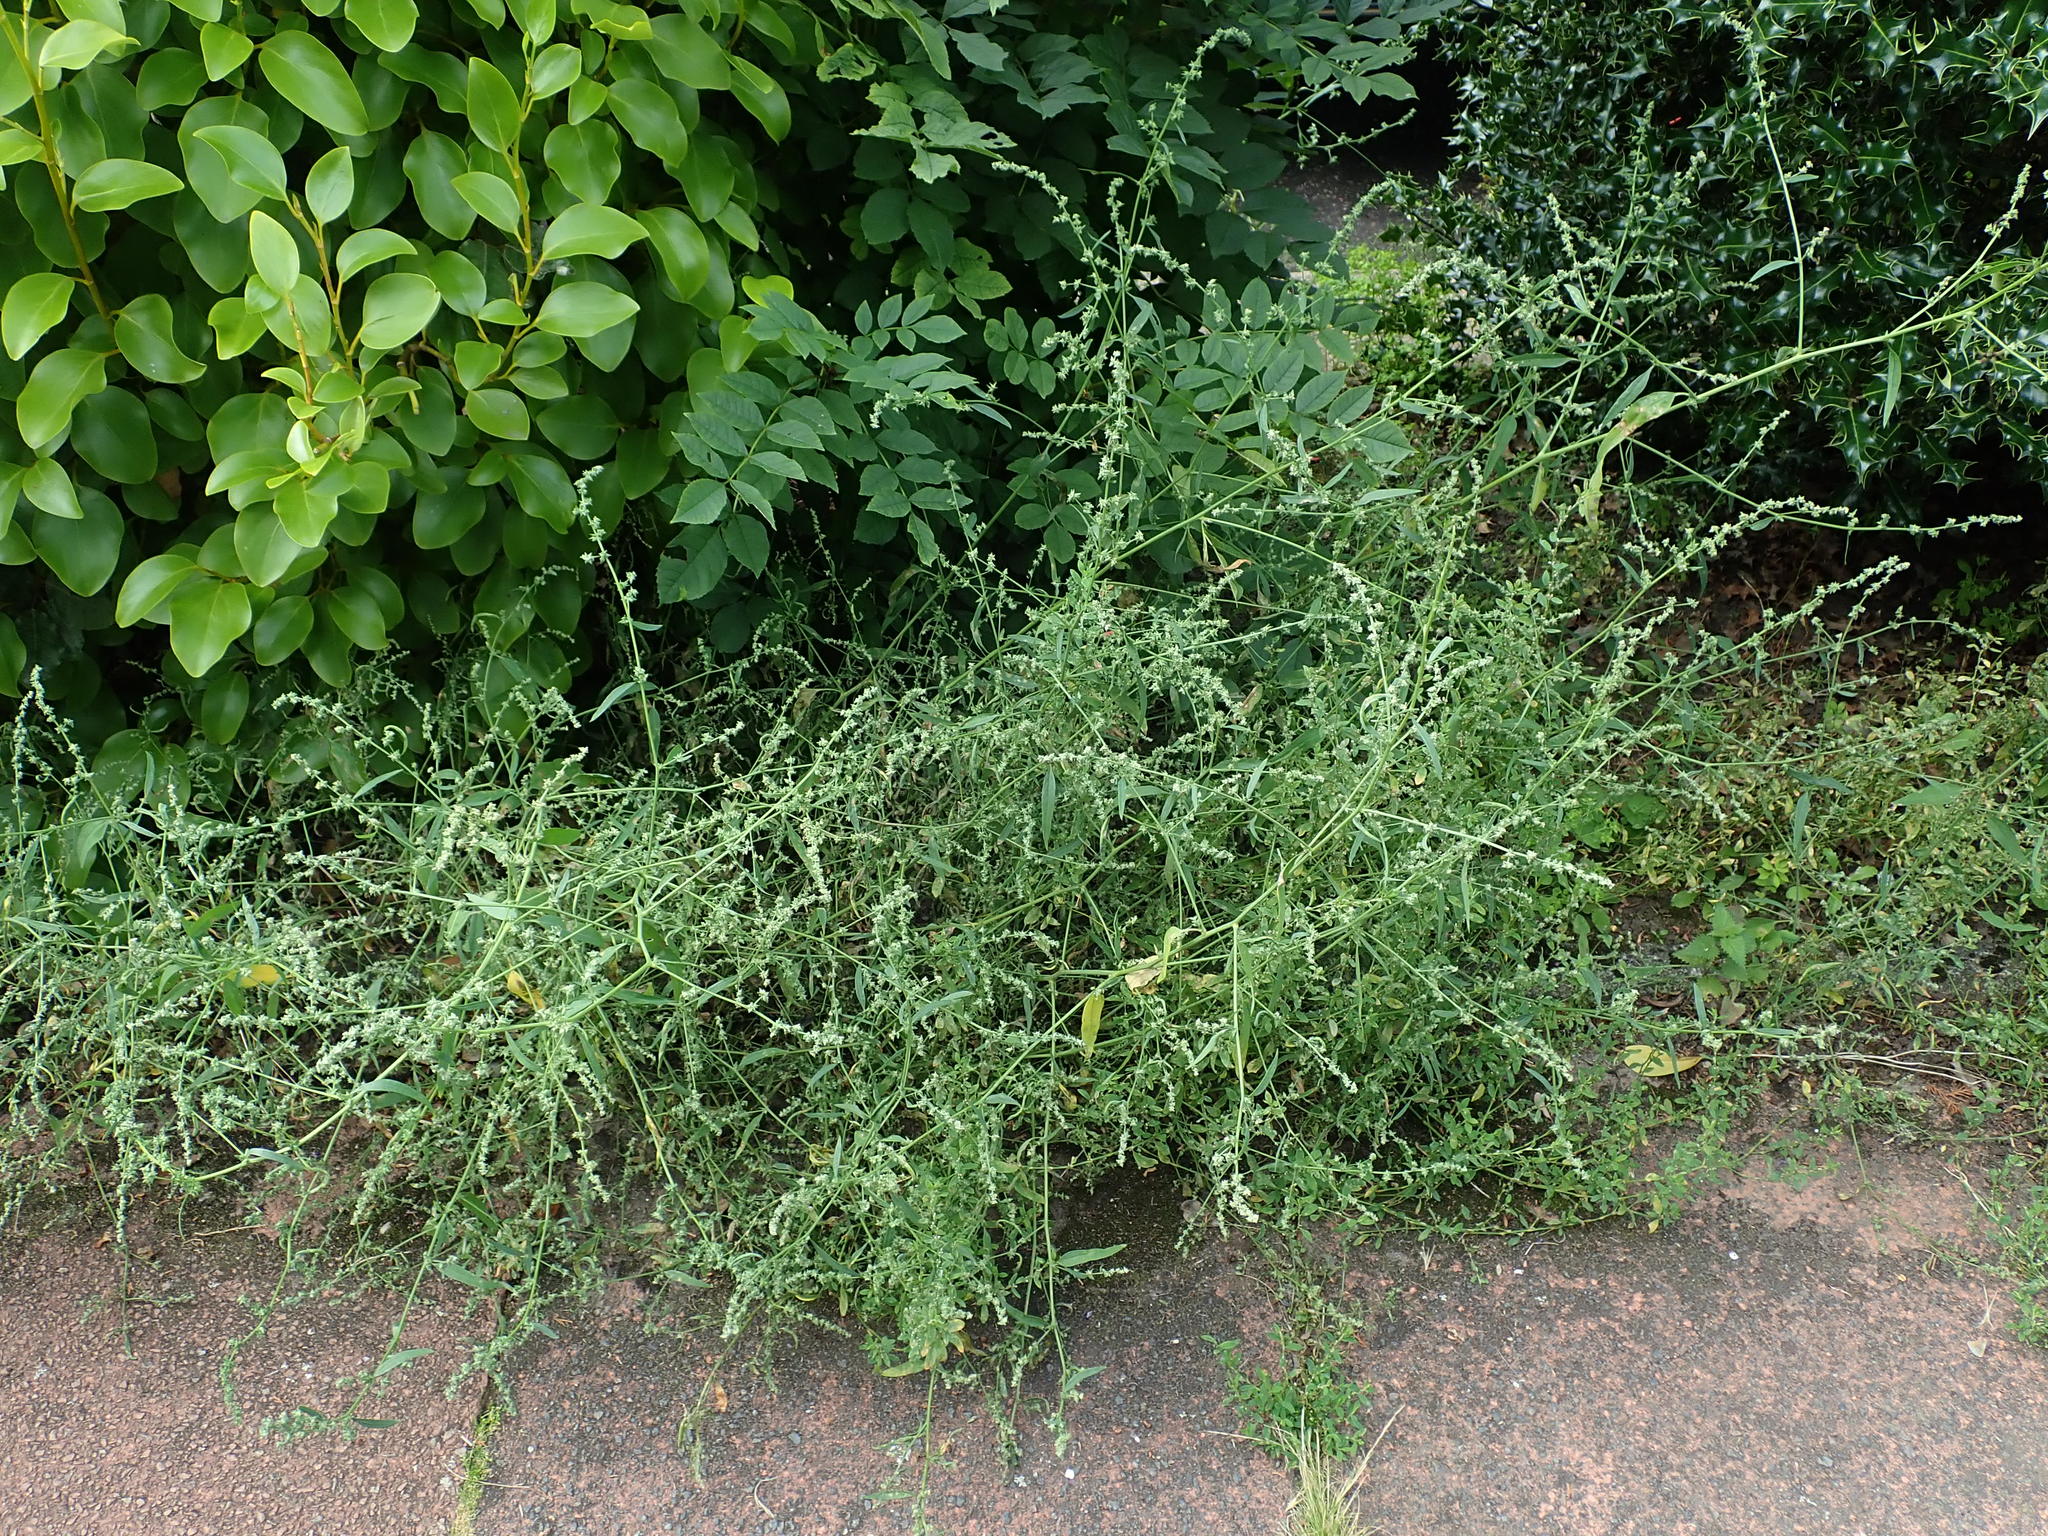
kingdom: Plantae
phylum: Tracheophyta
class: Magnoliopsida
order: Caryophyllales
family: Amaranthaceae
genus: Atriplex
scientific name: Atriplex patula
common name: Common orache
